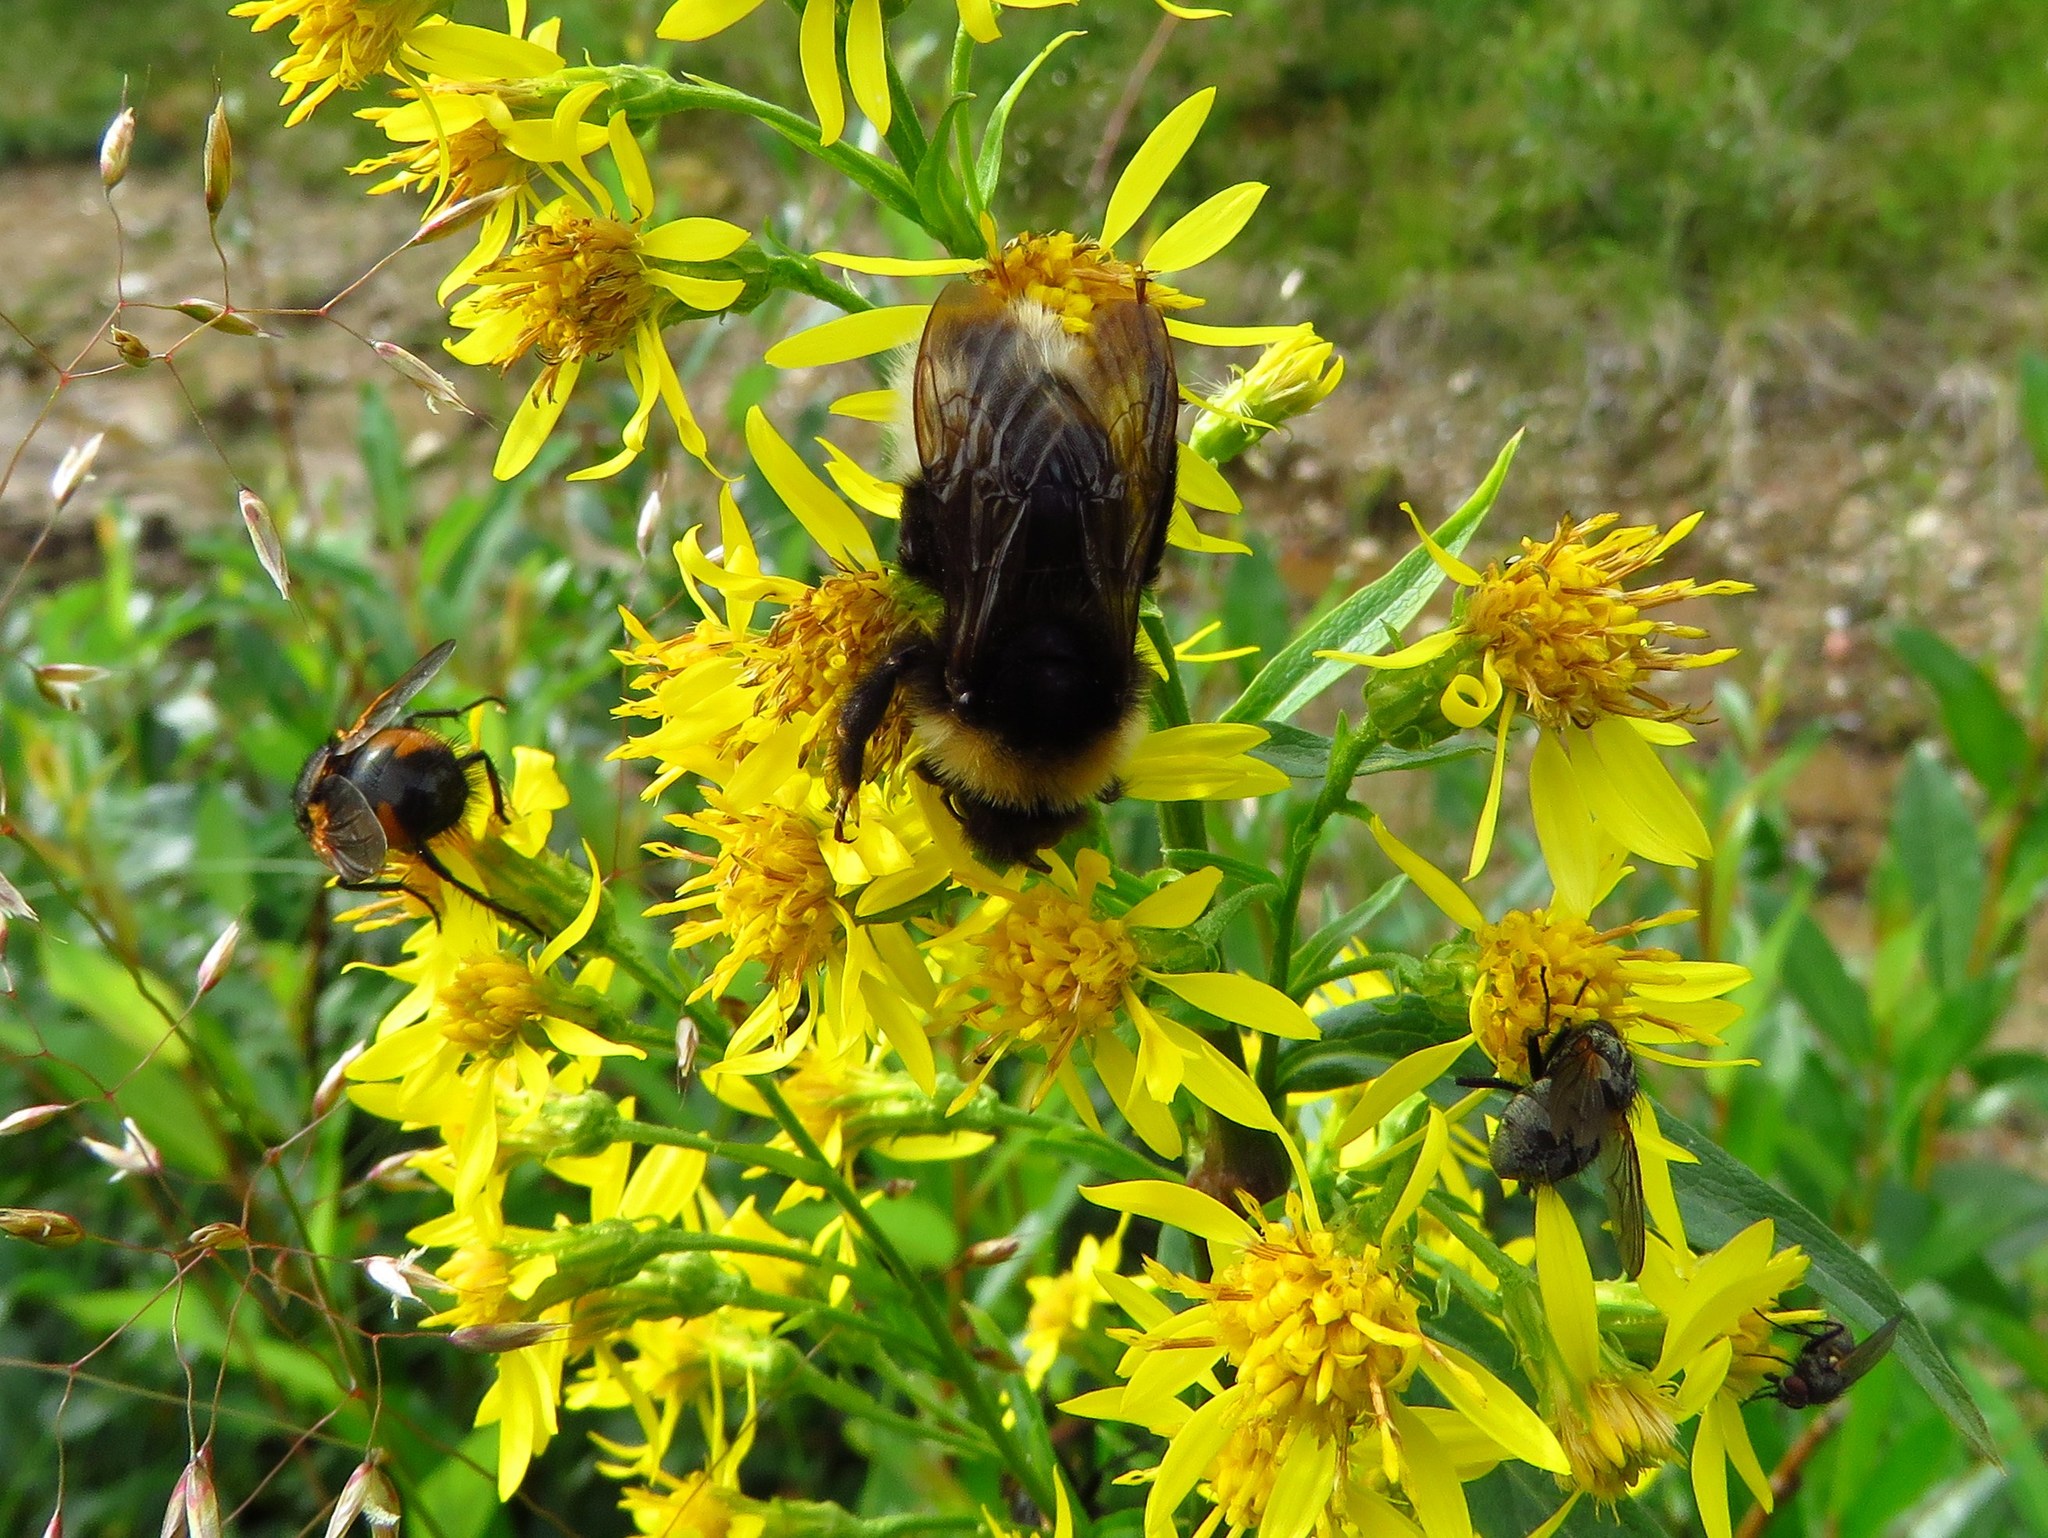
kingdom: Animalia
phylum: Arthropoda
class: Insecta
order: Hymenoptera
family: Apidae
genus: Bombus
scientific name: Bombus
